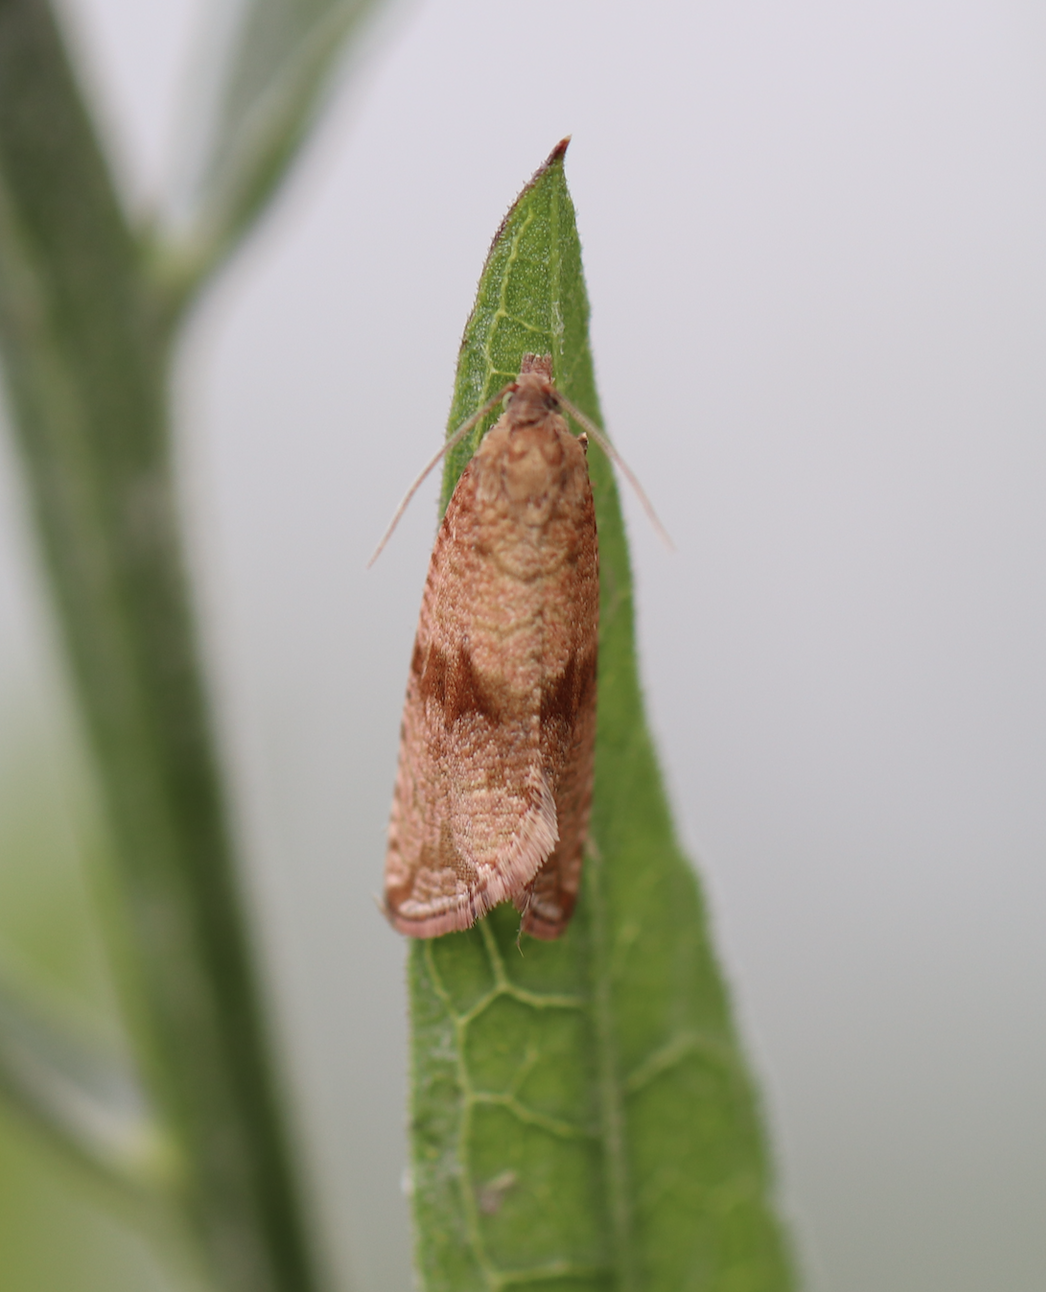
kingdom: Animalia
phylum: Arthropoda
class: Insecta
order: Lepidoptera
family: Tortricidae
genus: Celypha
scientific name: Celypha striana
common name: Barred marble
